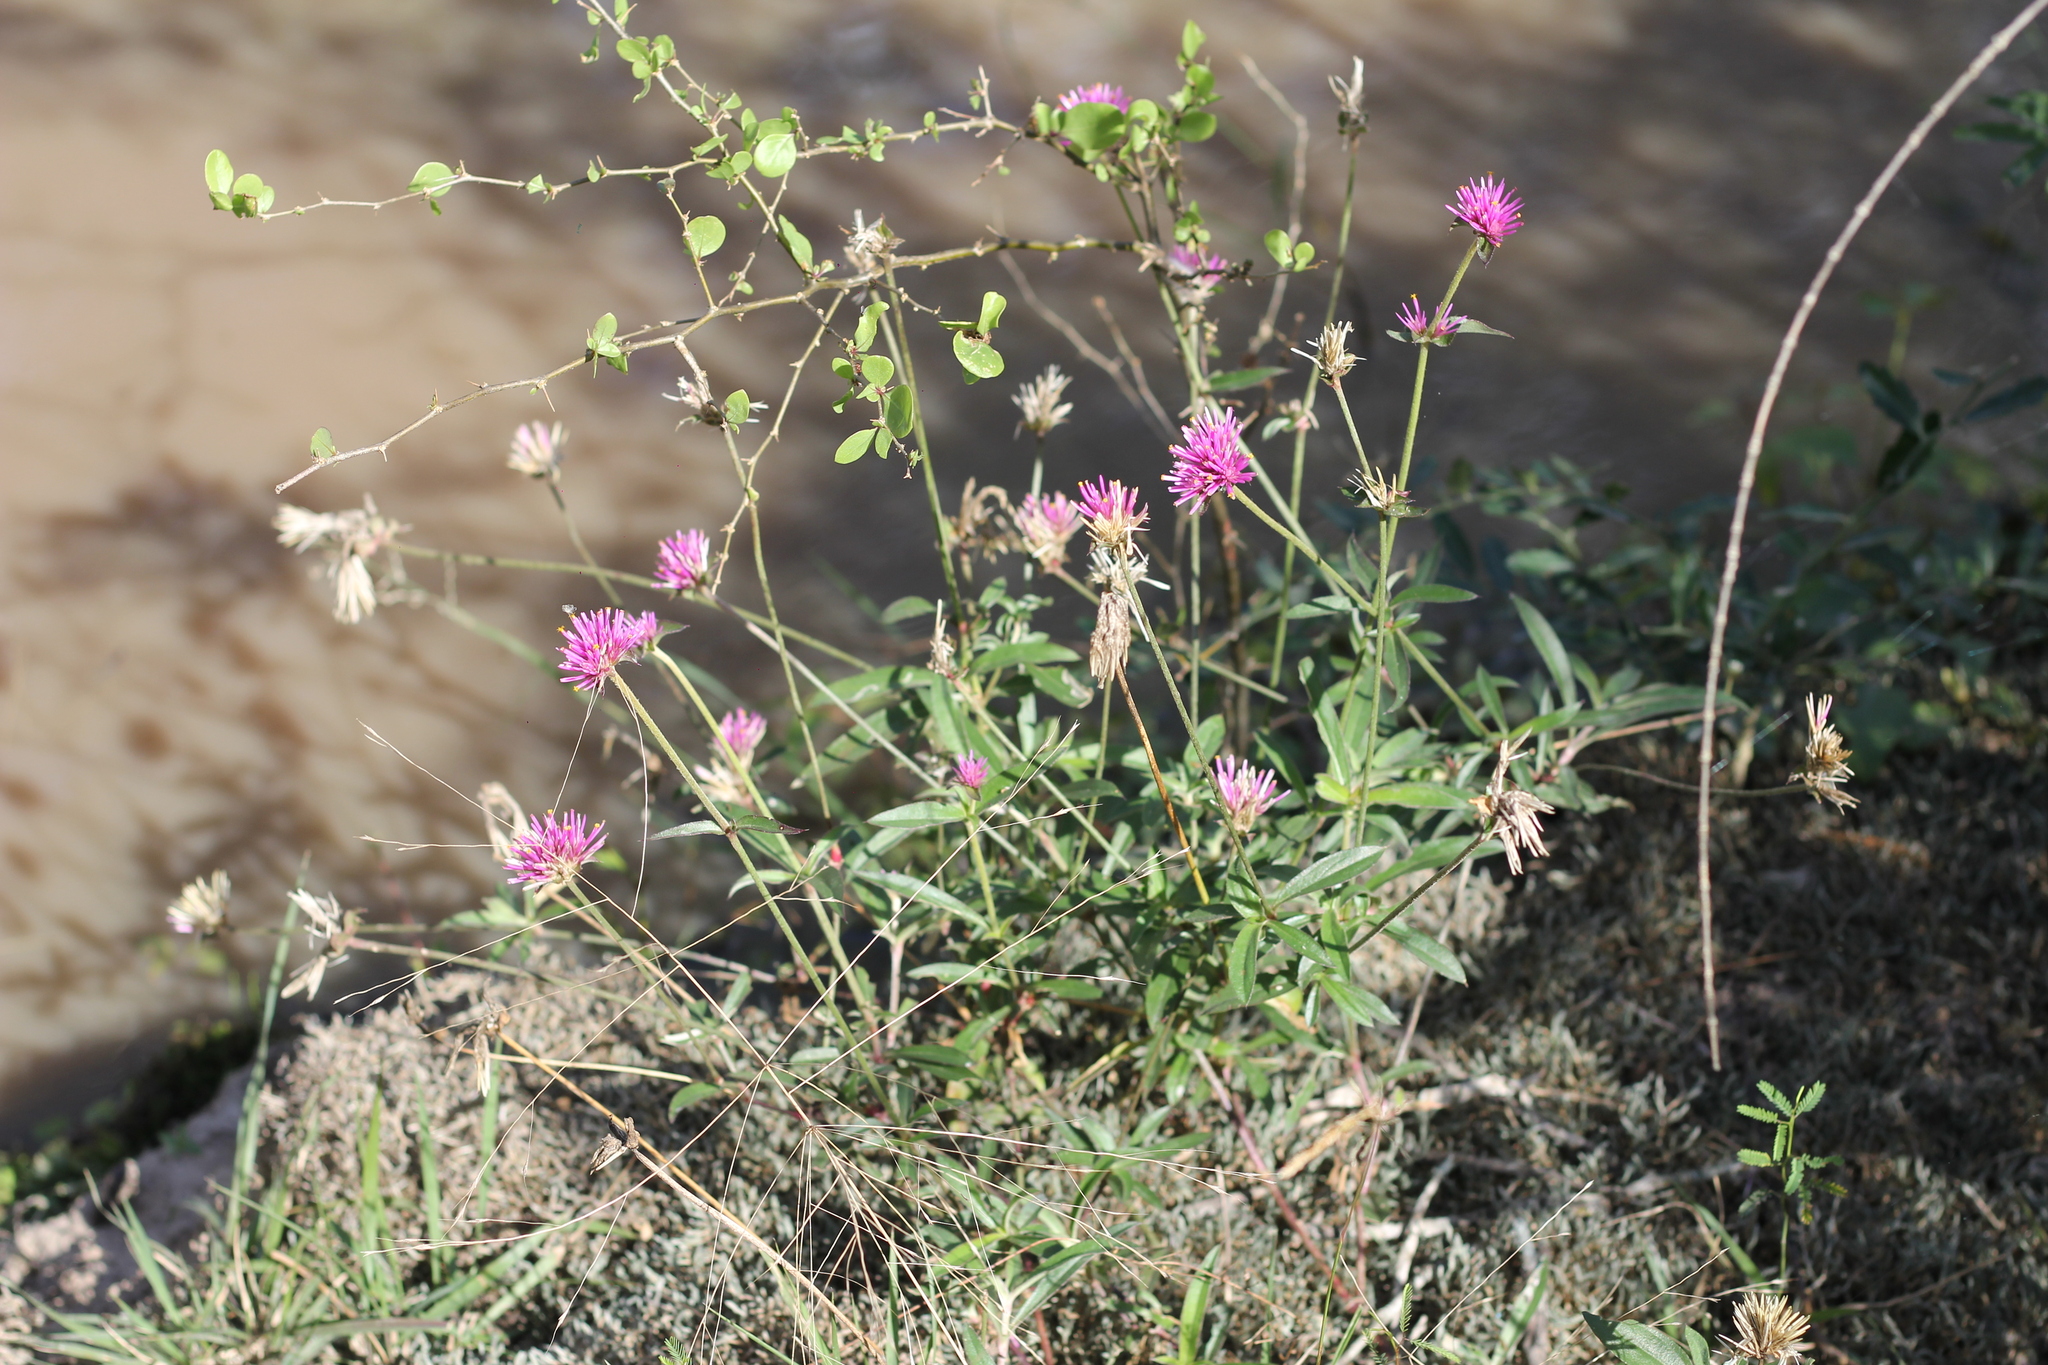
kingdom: Plantae
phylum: Tracheophyta
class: Magnoliopsida
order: Caryophyllales
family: Amaranthaceae
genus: Gomphrena
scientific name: Gomphrena pulchella
